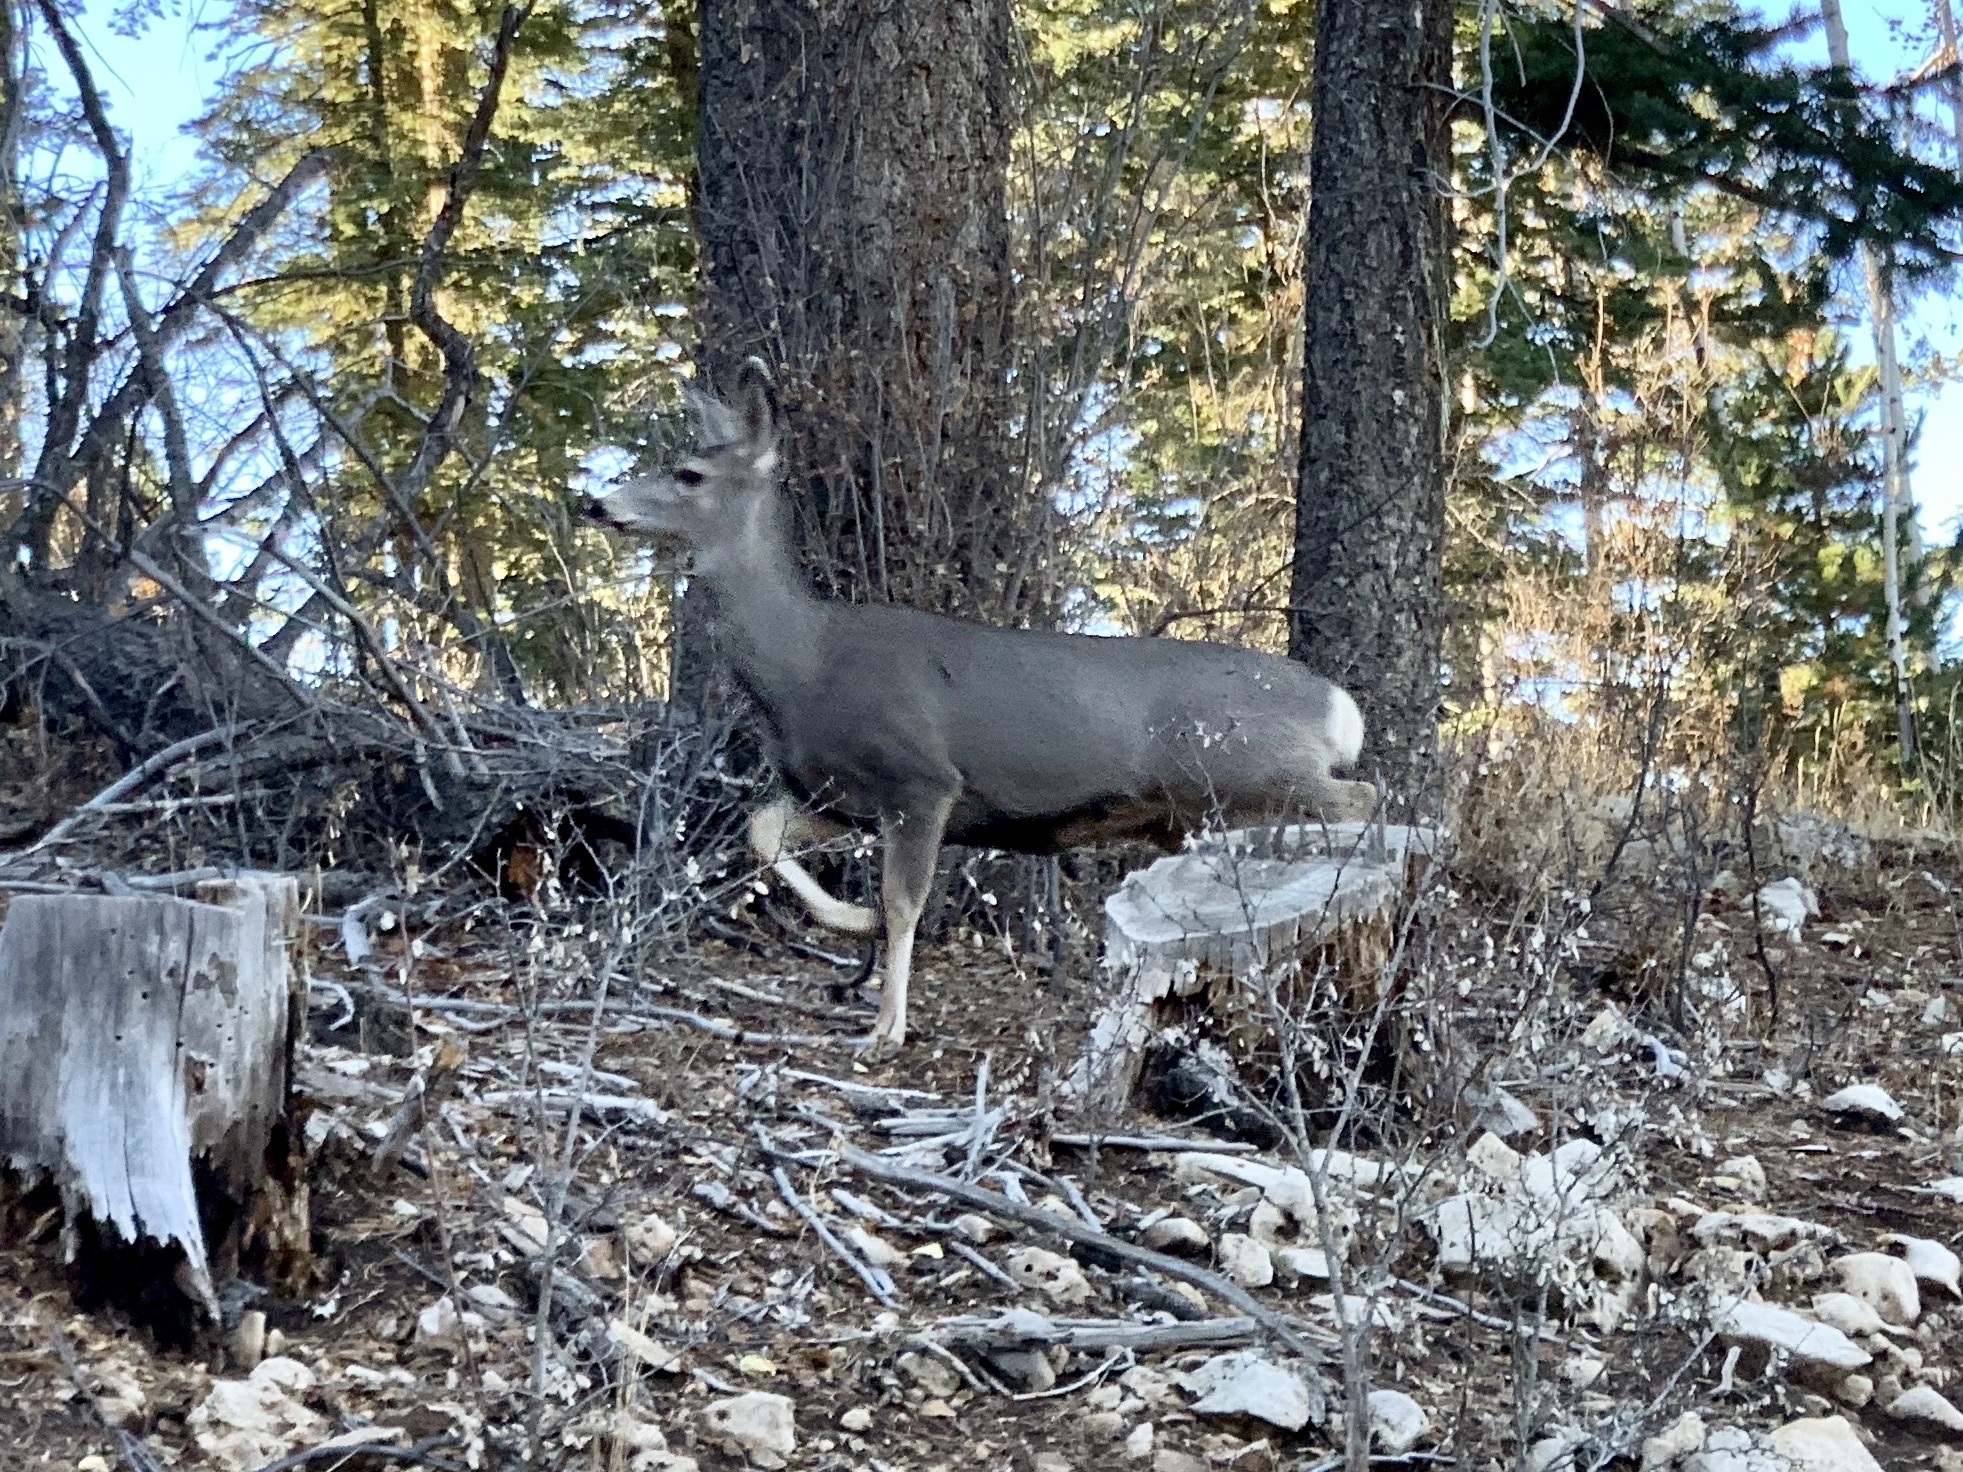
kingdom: Animalia
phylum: Chordata
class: Mammalia
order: Artiodactyla
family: Cervidae
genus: Odocoileus
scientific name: Odocoileus hemionus
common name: Mule deer
